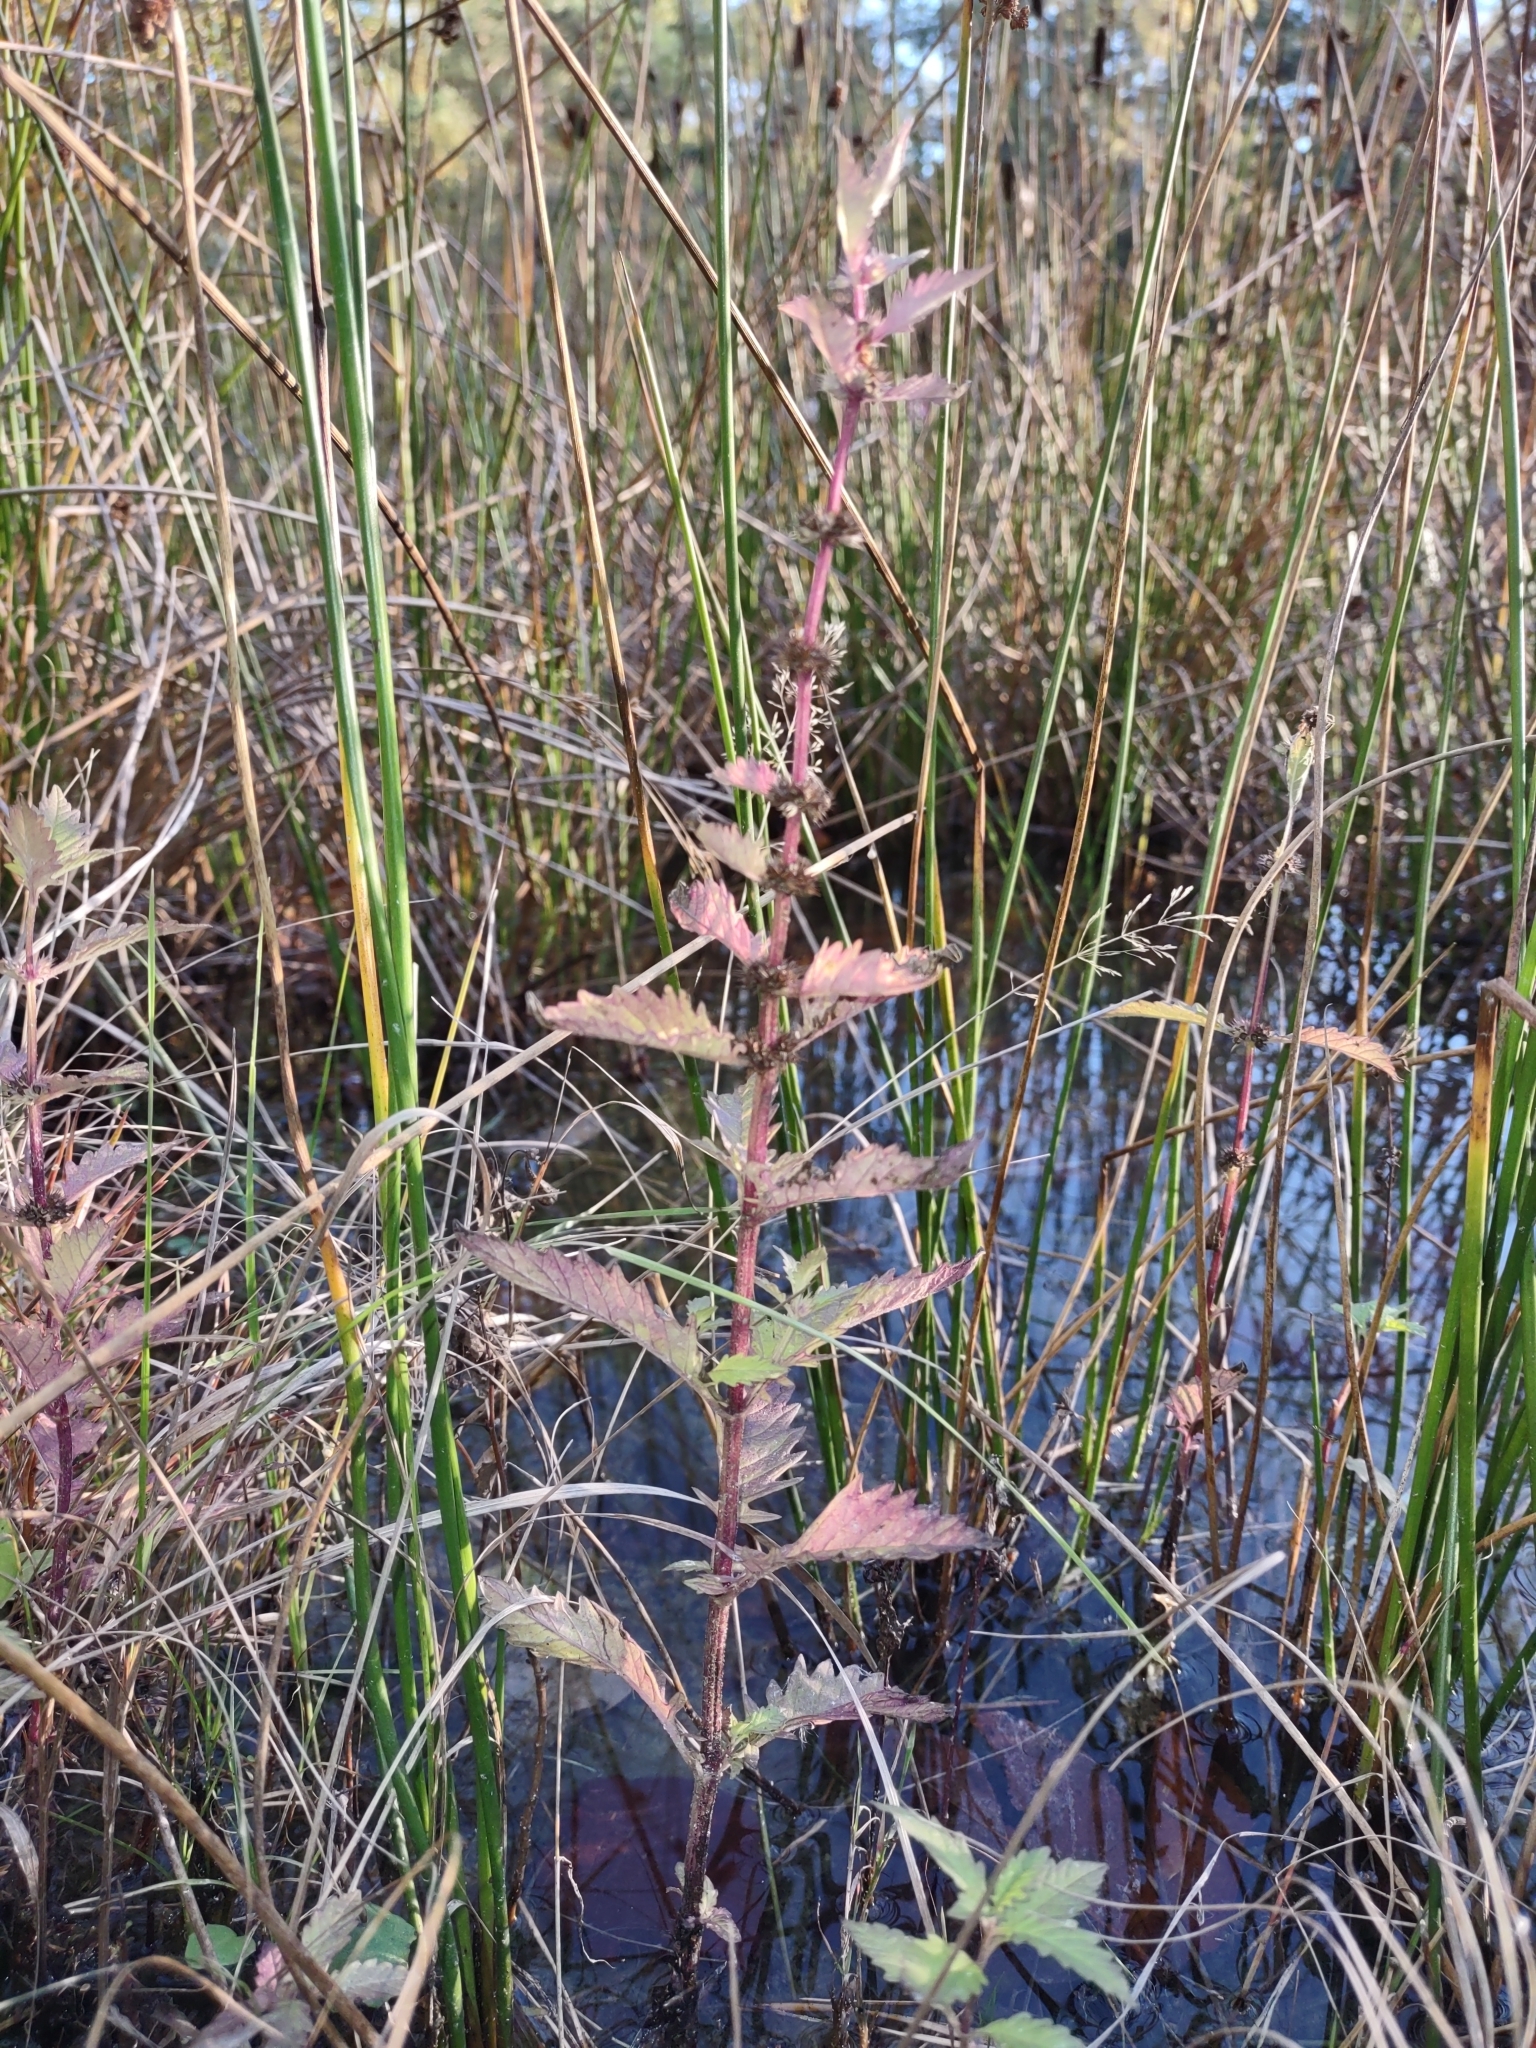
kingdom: Plantae
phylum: Tracheophyta
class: Magnoliopsida
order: Lamiales
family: Lamiaceae
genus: Lycopus
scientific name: Lycopus europaeus
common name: European bugleweed
